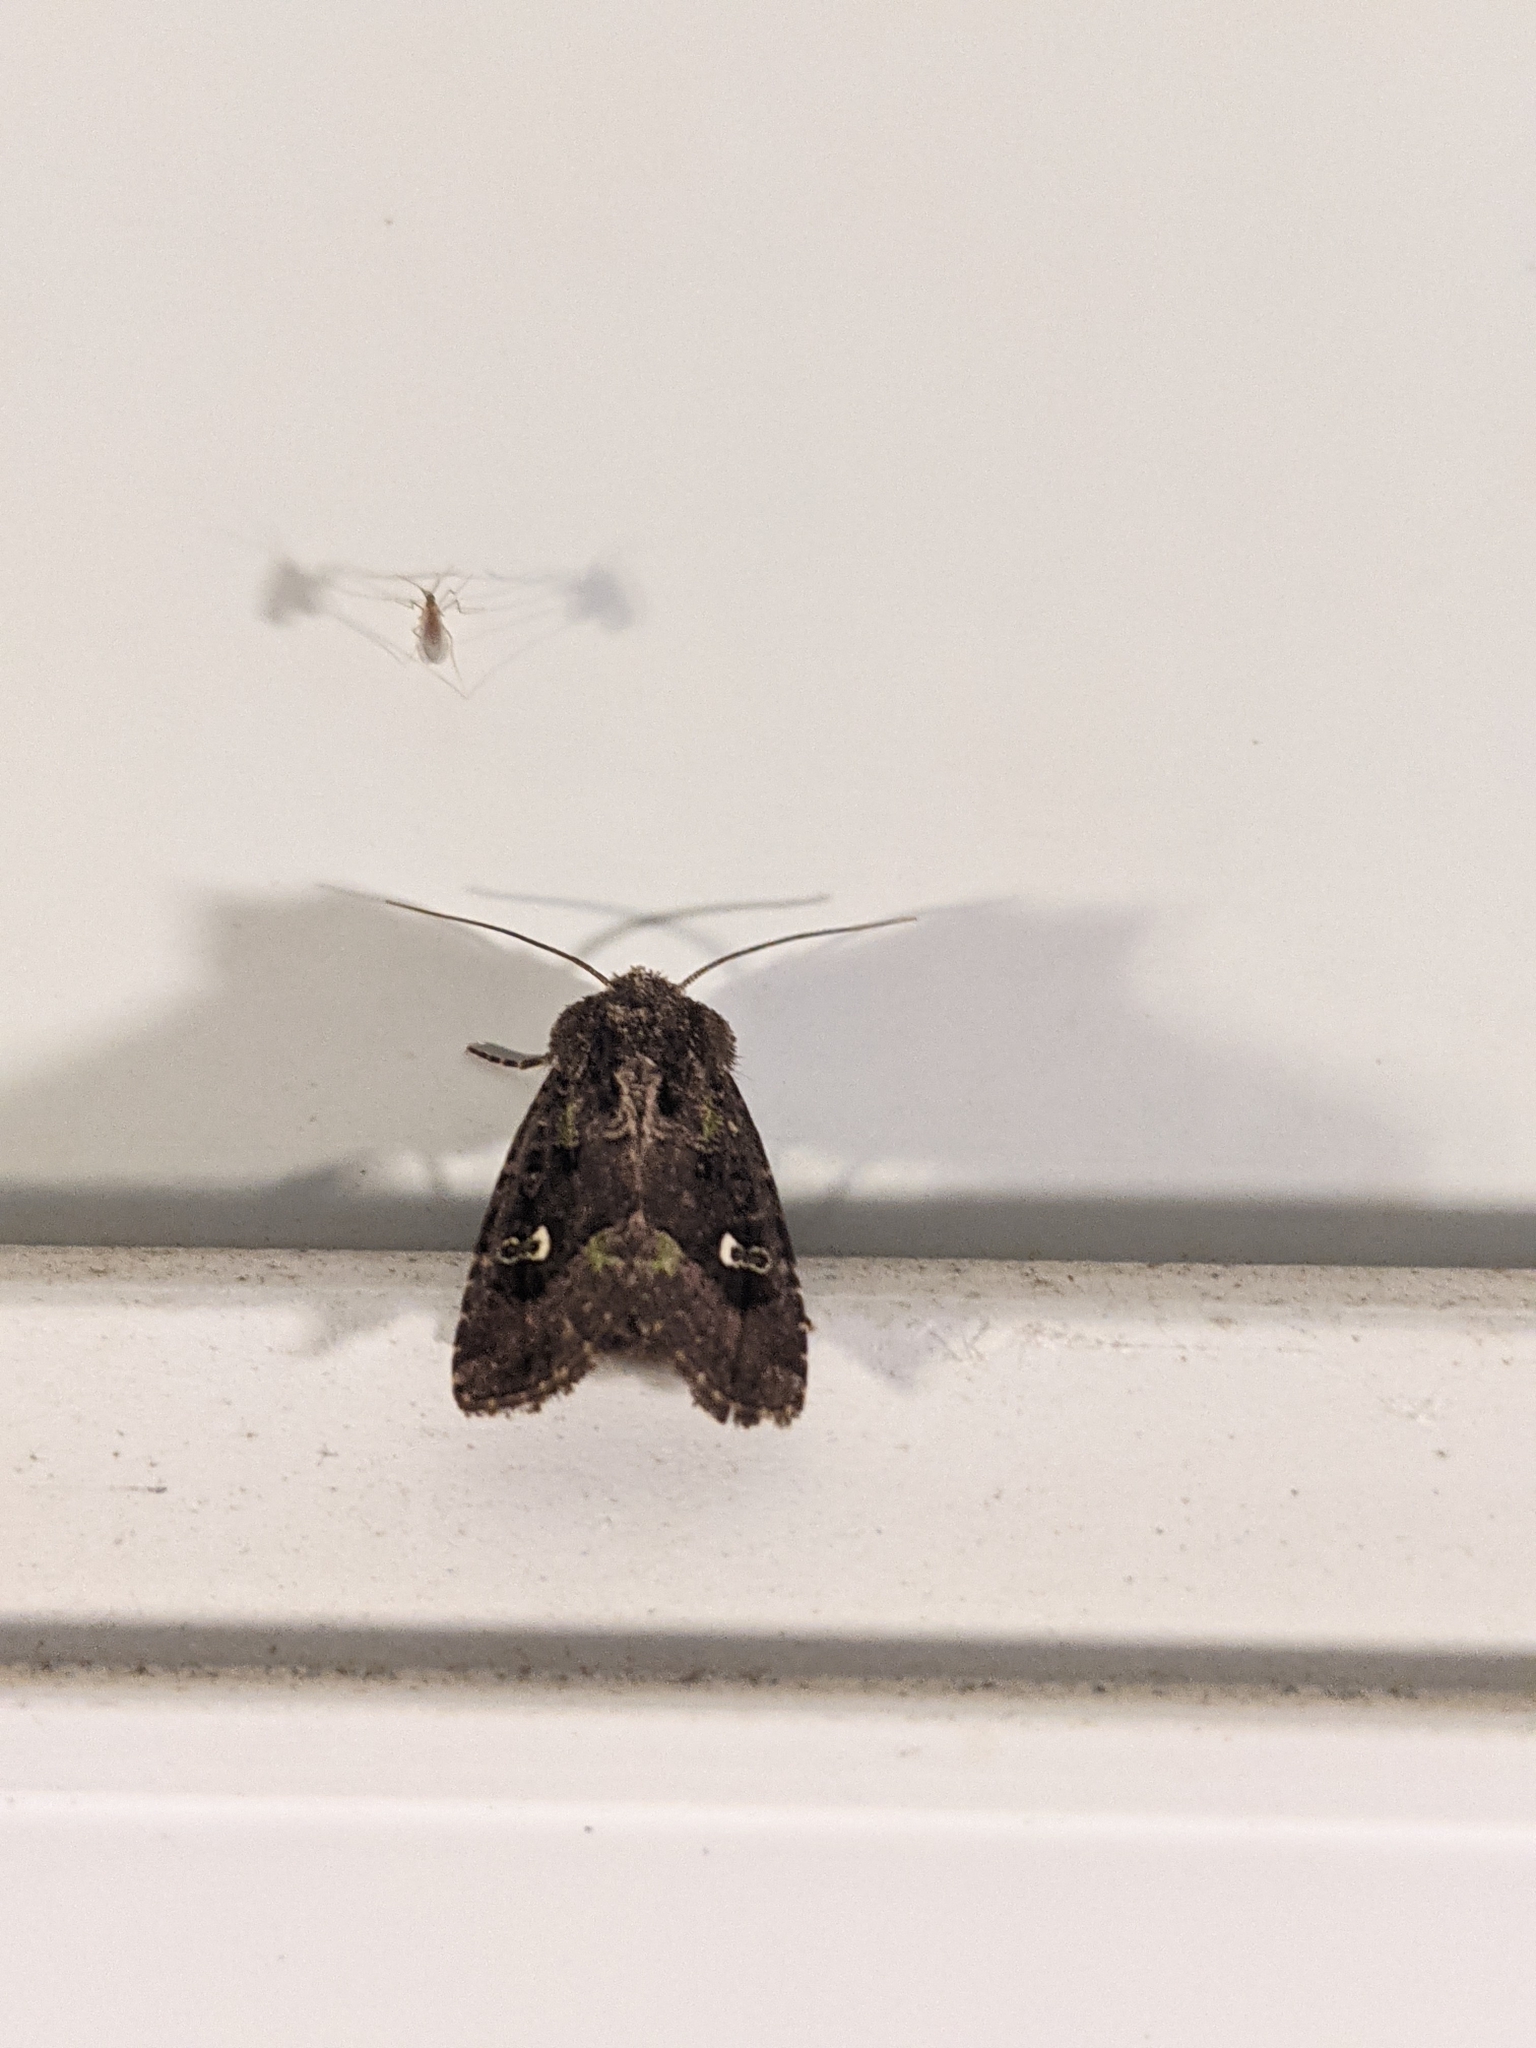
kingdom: Animalia
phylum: Arthropoda
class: Insecta
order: Lepidoptera
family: Noctuidae
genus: Lacinipolia
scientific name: Lacinipolia renigera
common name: Kidney-spotted minor
